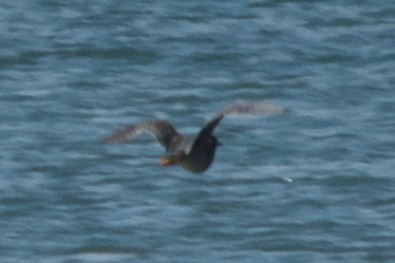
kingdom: Animalia
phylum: Chordata
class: Aves
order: Pelecaniformes
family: Ardeidae
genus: Butorides
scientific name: Butorides virescens
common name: Green heron
